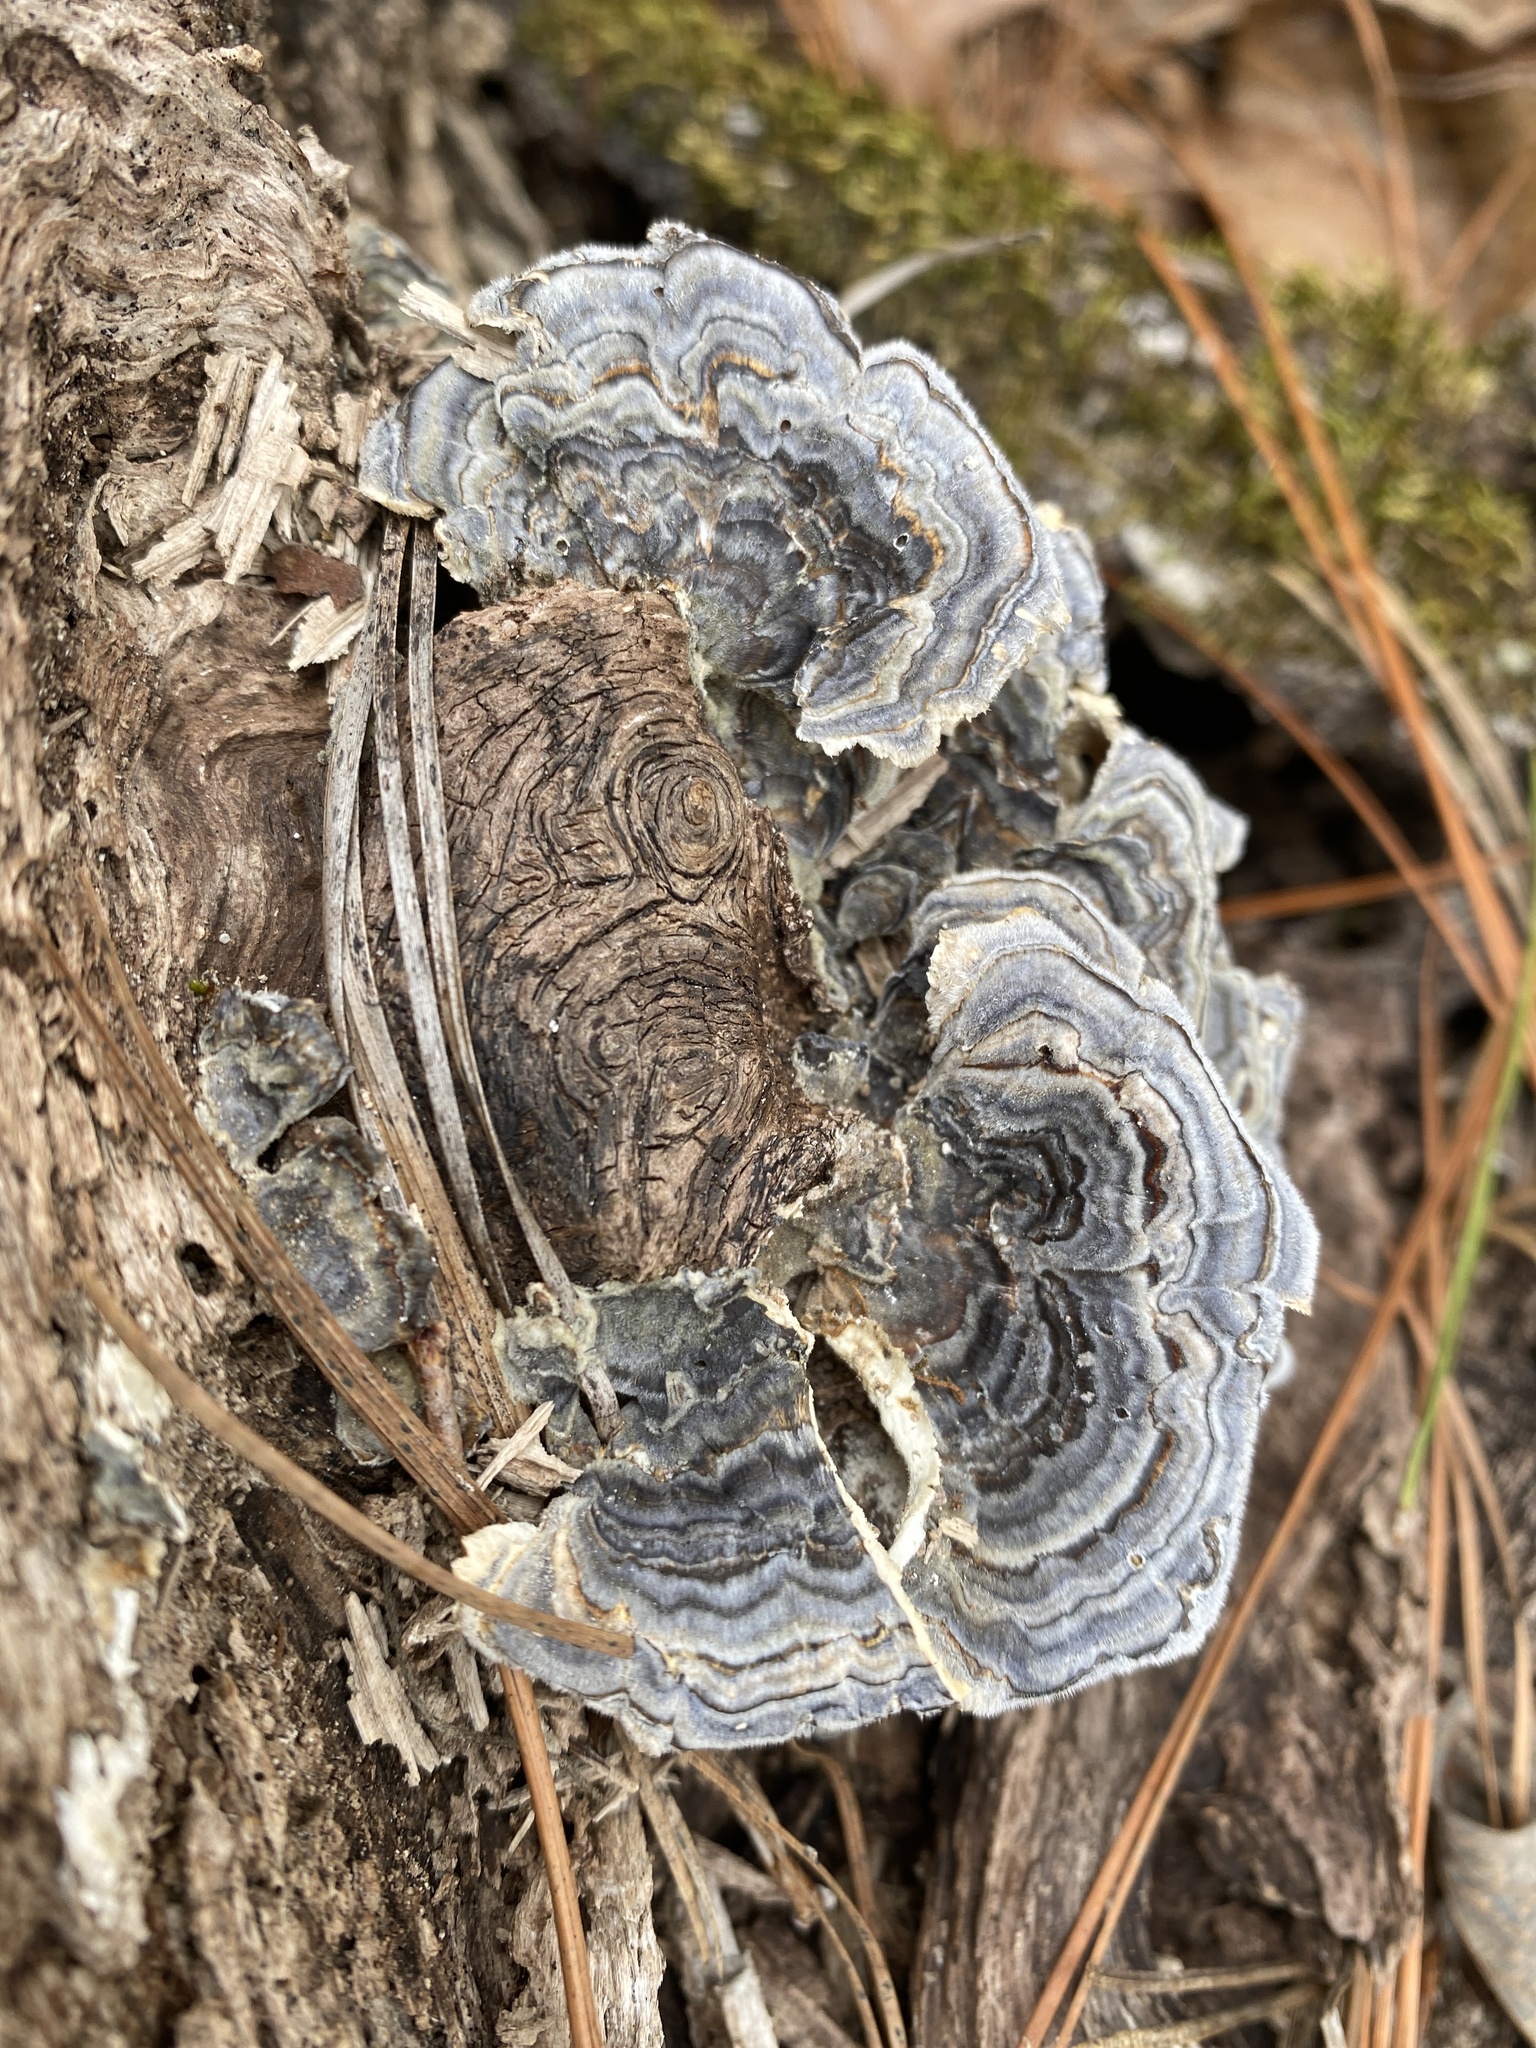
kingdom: Fungi
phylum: Basidiomycota
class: Agaricomycetes
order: Polyporales
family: Polyporaceae
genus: Trametes
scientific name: Trametes versicolor
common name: Turkeytail
